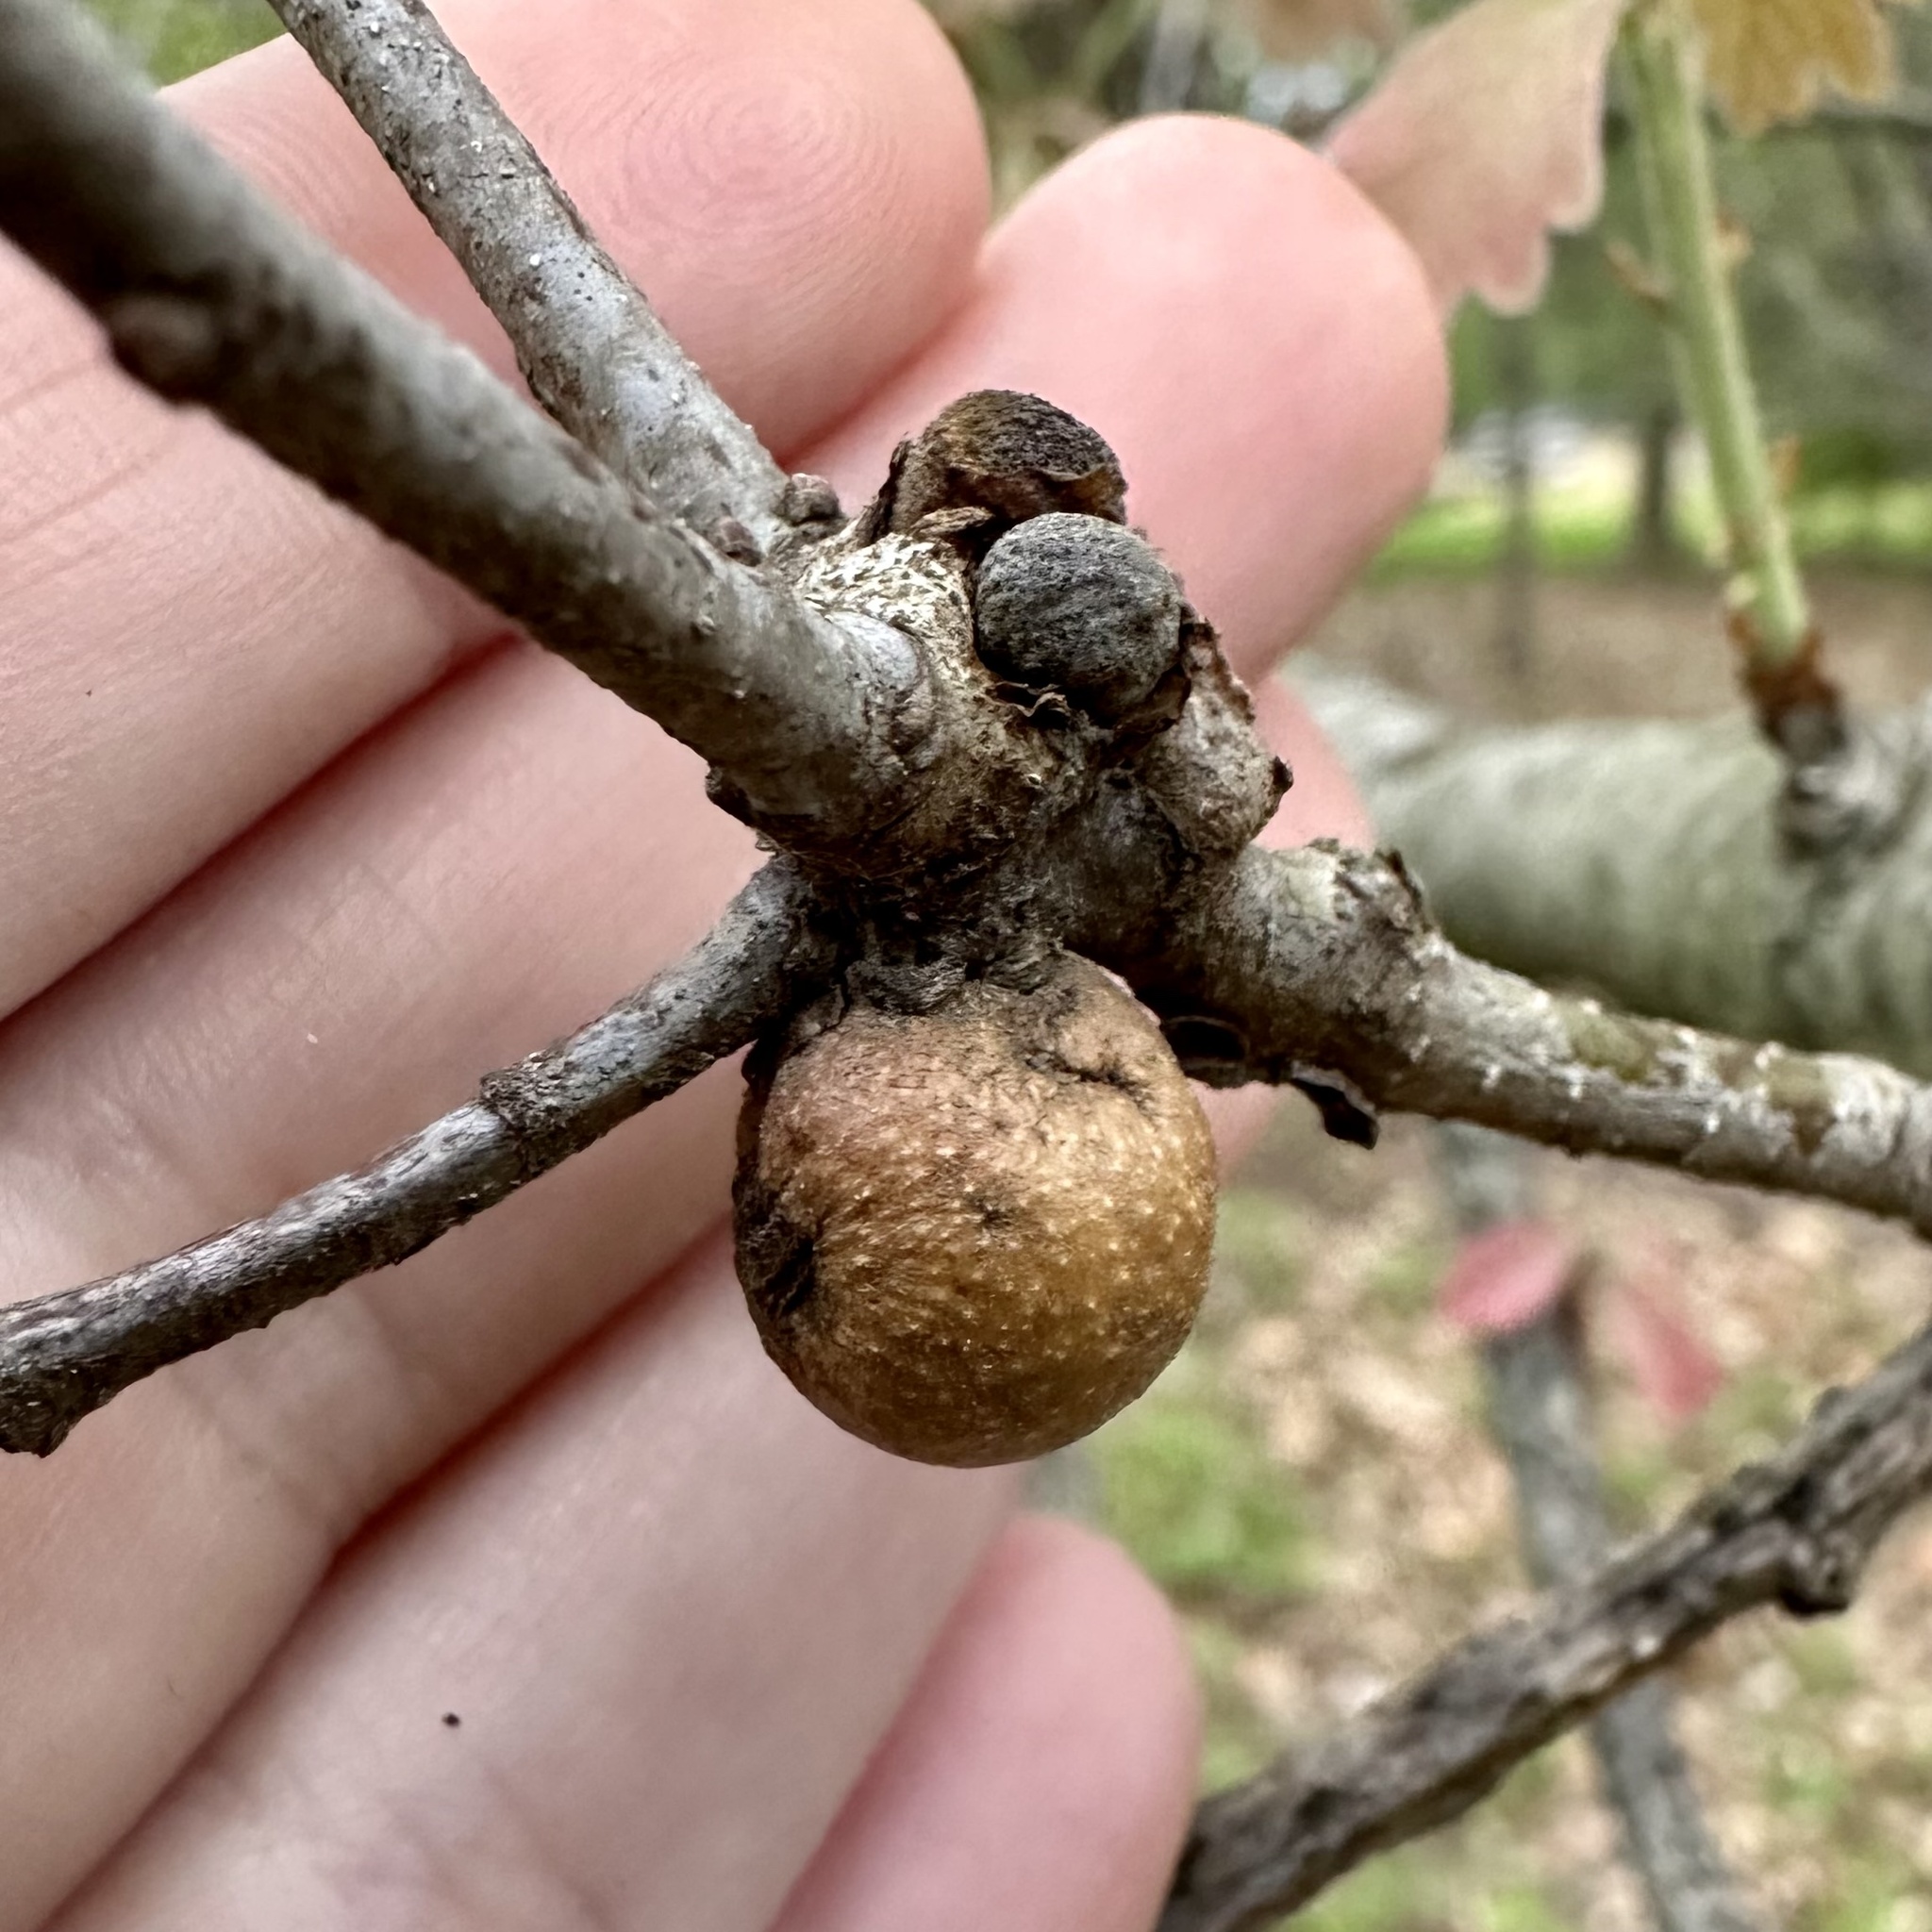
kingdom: Animalia
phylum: Arthropoda
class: Insecta
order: Hymenoptera
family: Cynipidae
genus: Disholcaspis
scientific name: Disholcaspis quercusglobulus
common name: Round bullet gall wasp
